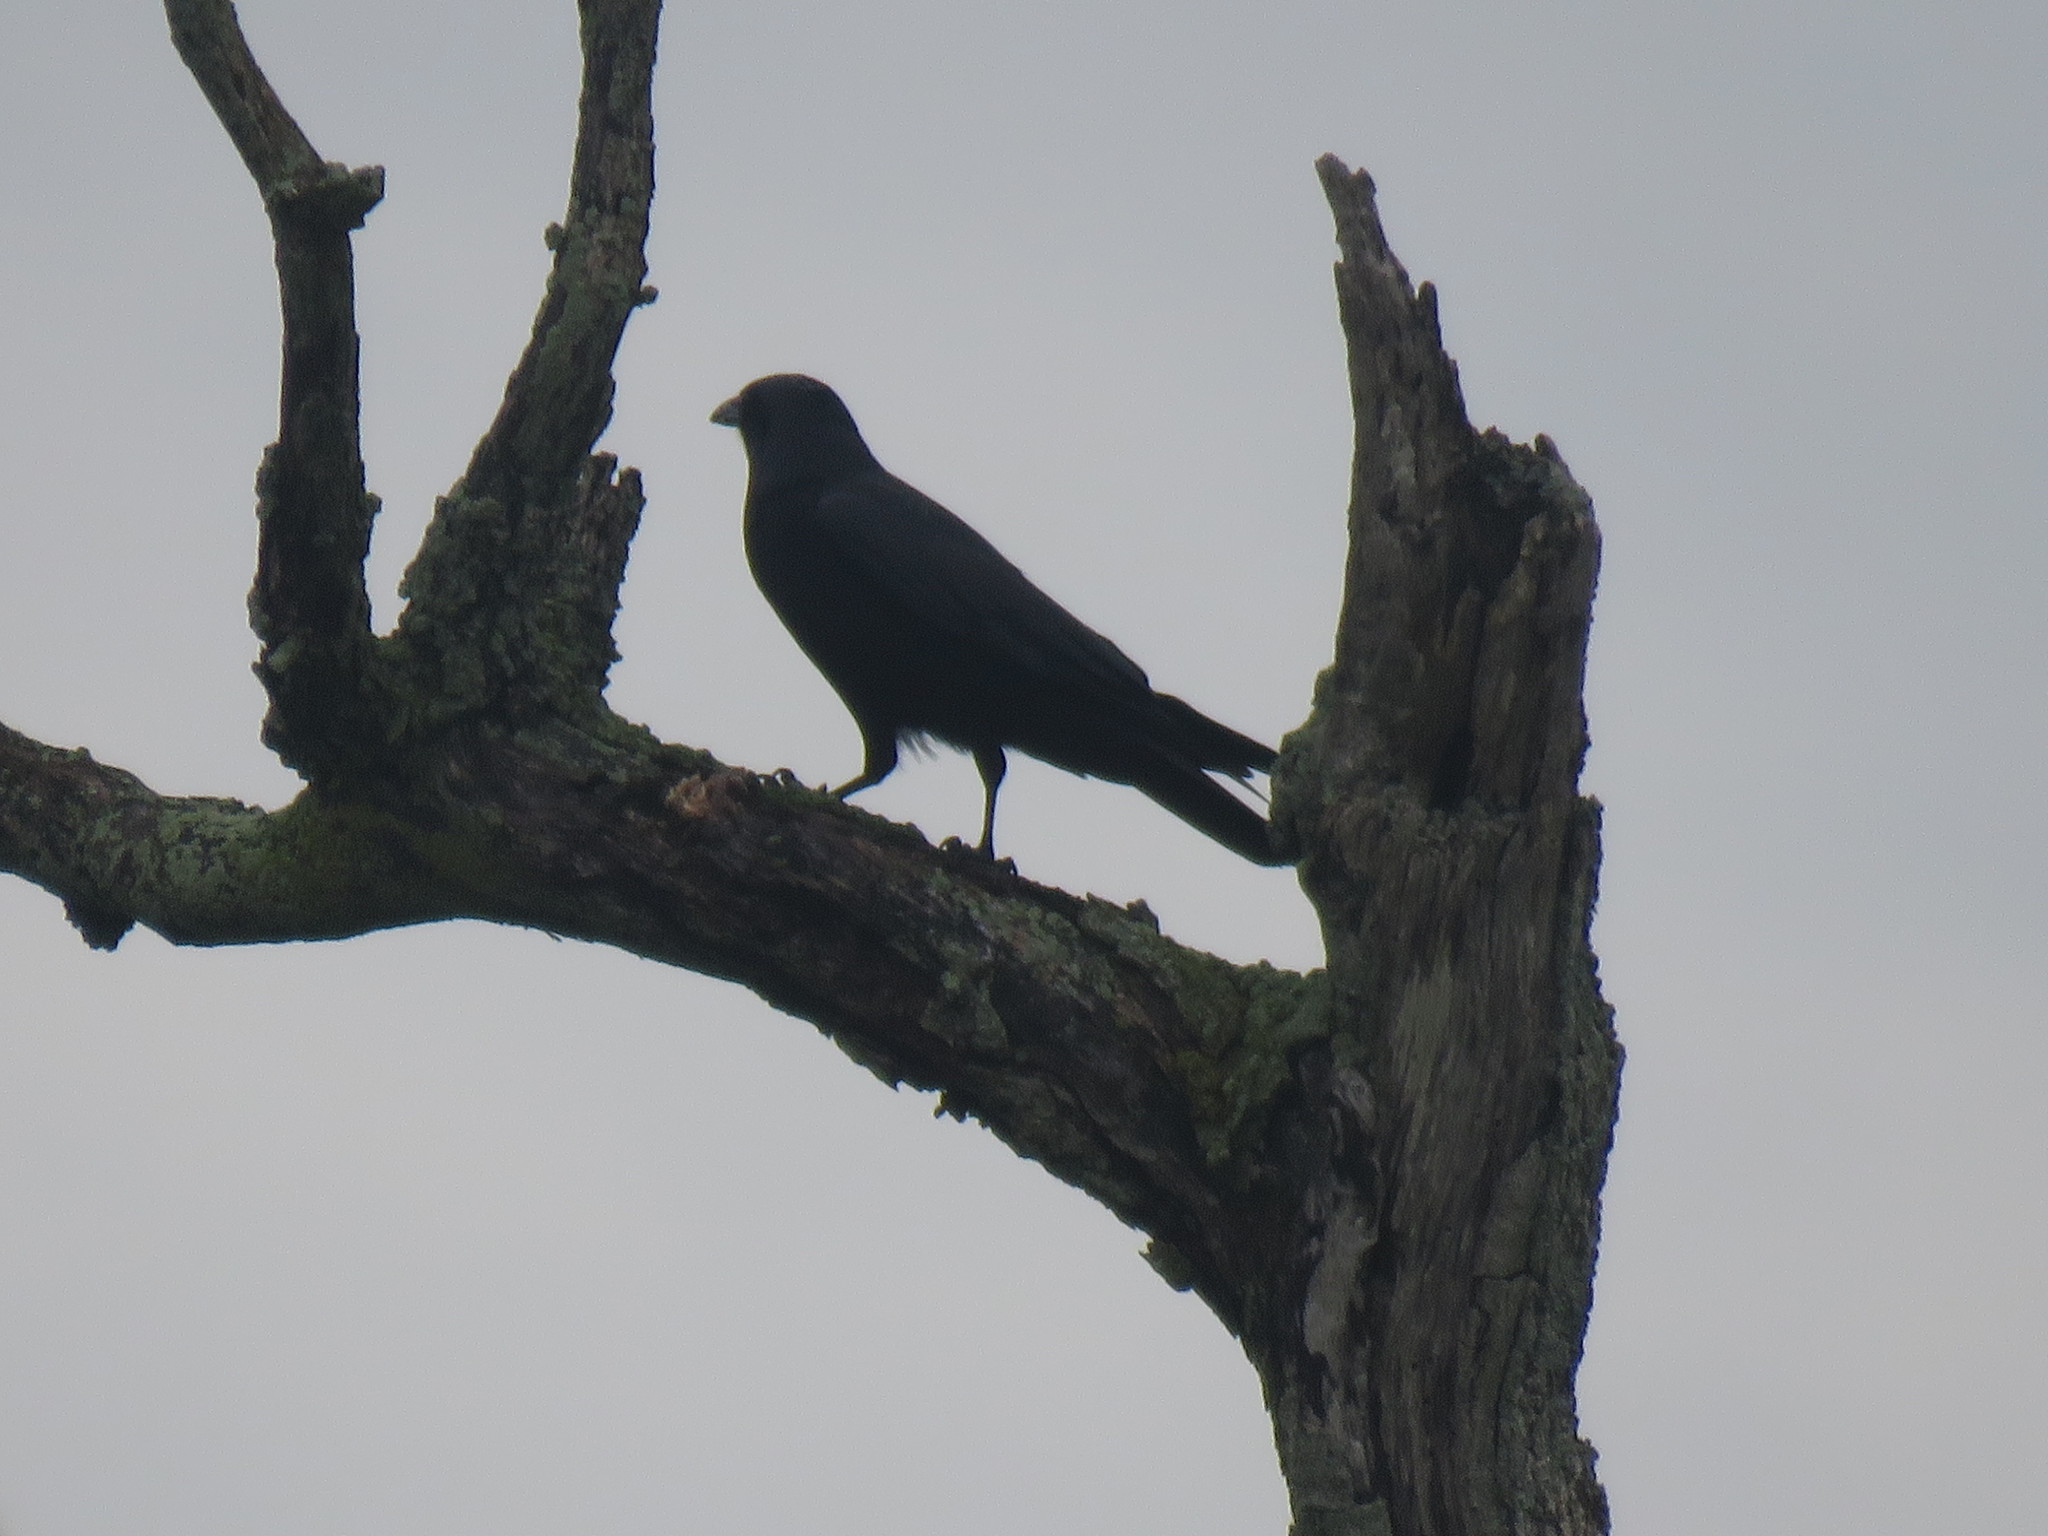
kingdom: Animalia
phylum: Chordata
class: Aves
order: Passeriformes
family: Corvidae
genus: Corvus
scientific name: Corvus ossifragus
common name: Fish crow
